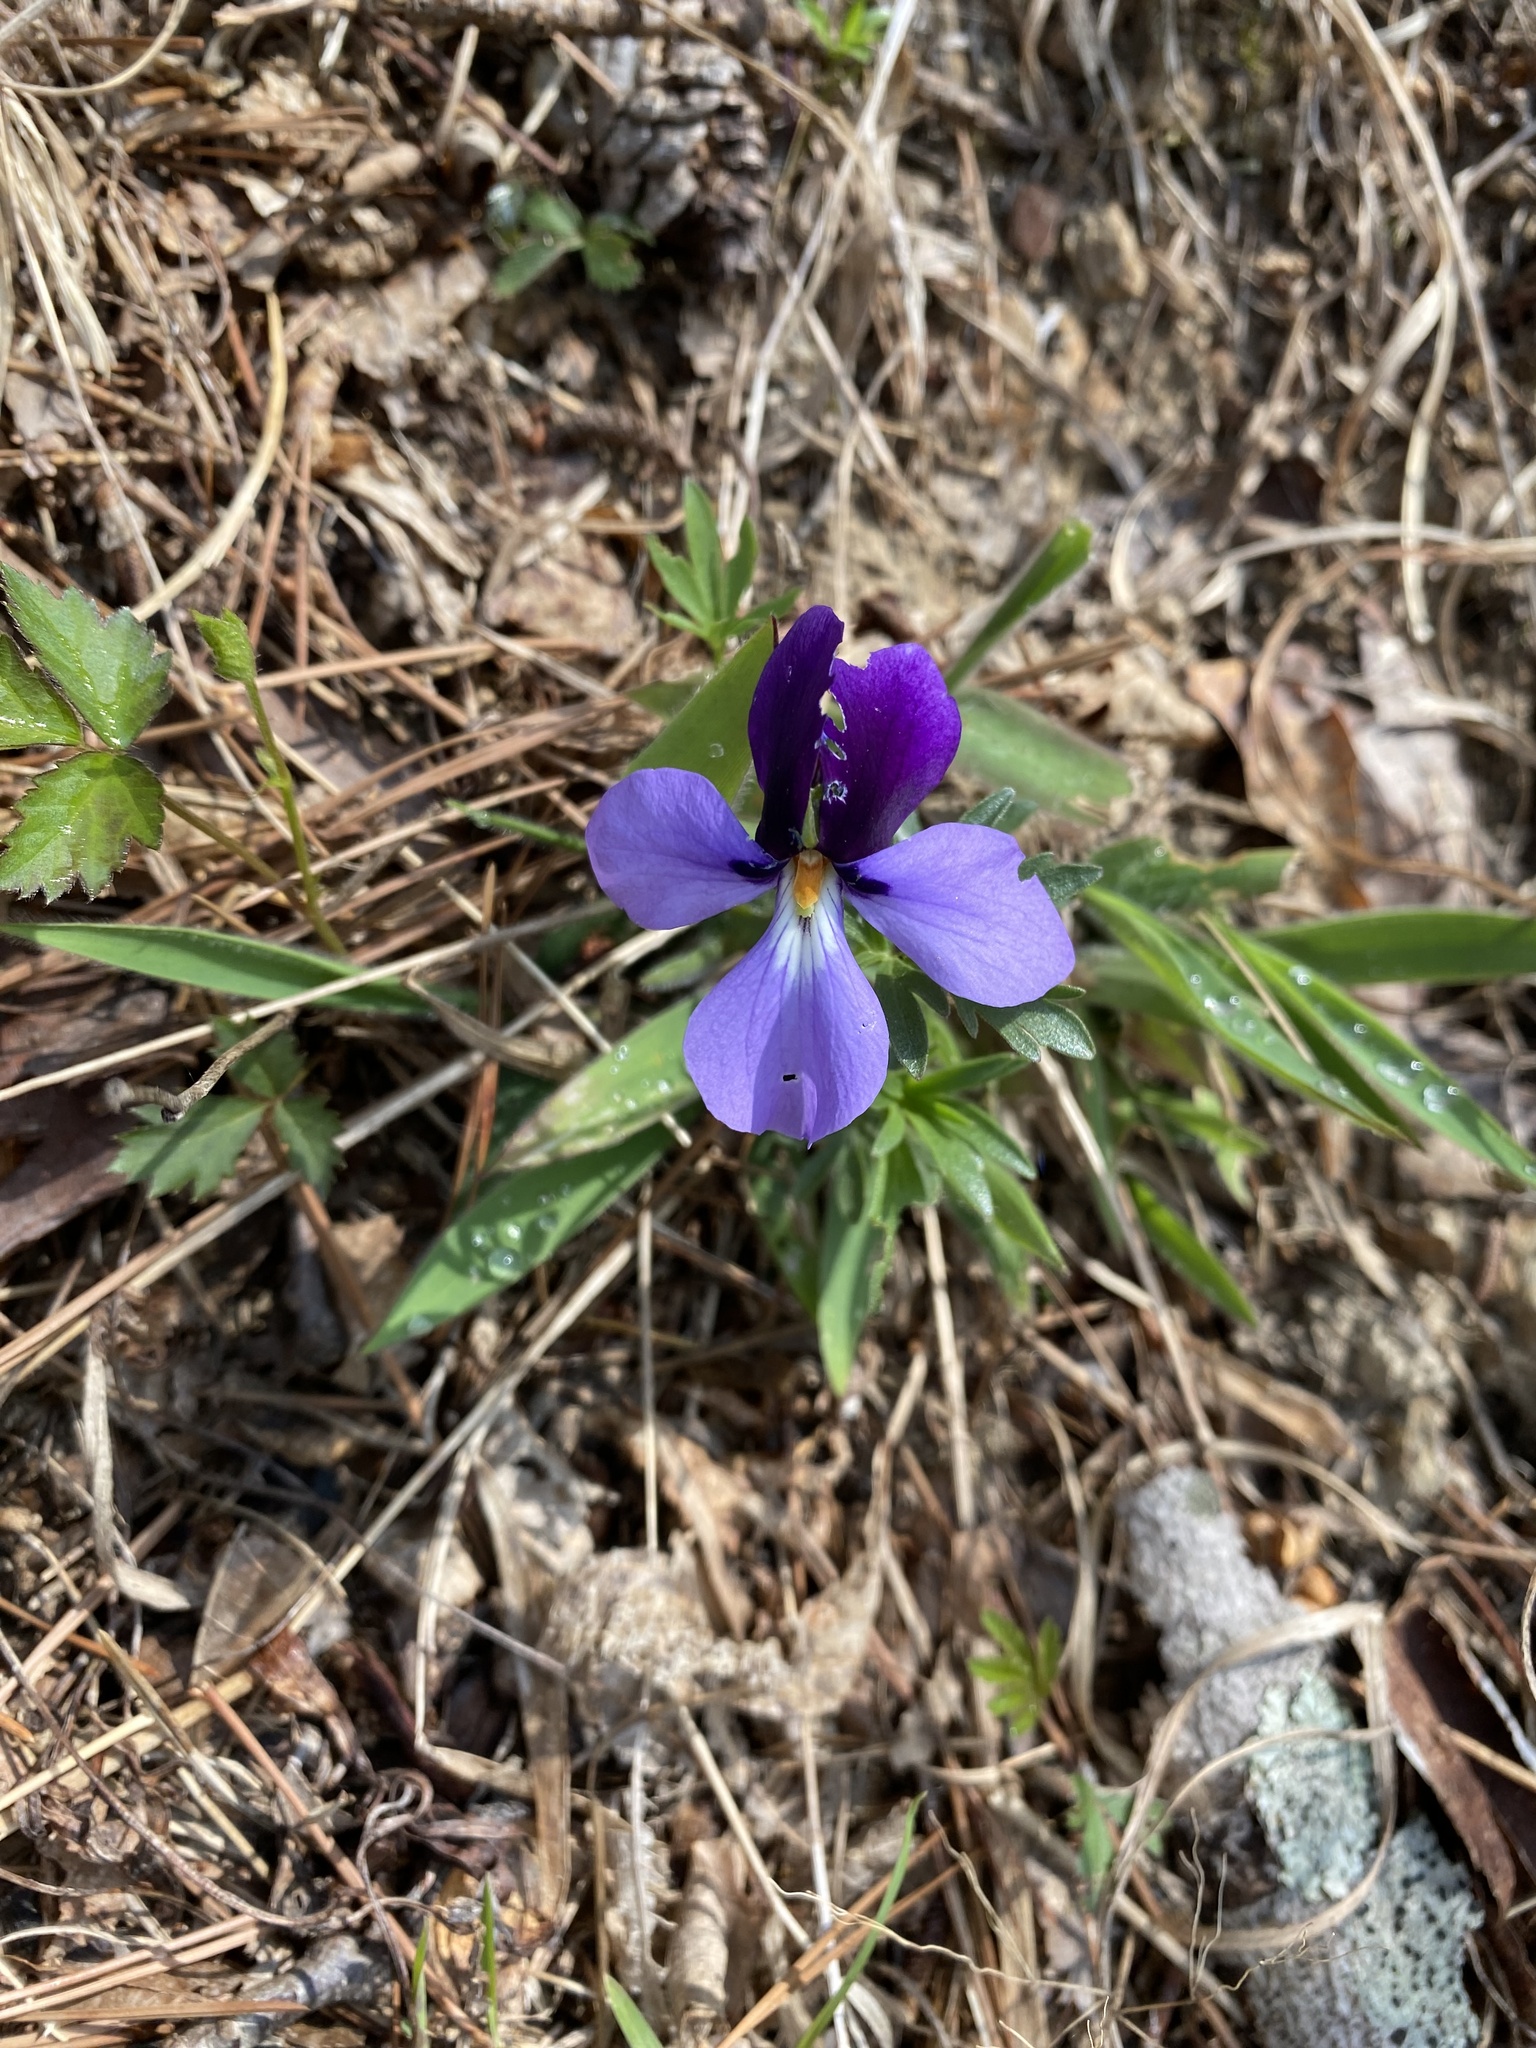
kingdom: Plantae
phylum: Tracheophyta
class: Magnoliopsida
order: Malpighiales
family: Violaceae
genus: Viola
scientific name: Viola pedata
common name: Pansy violet
